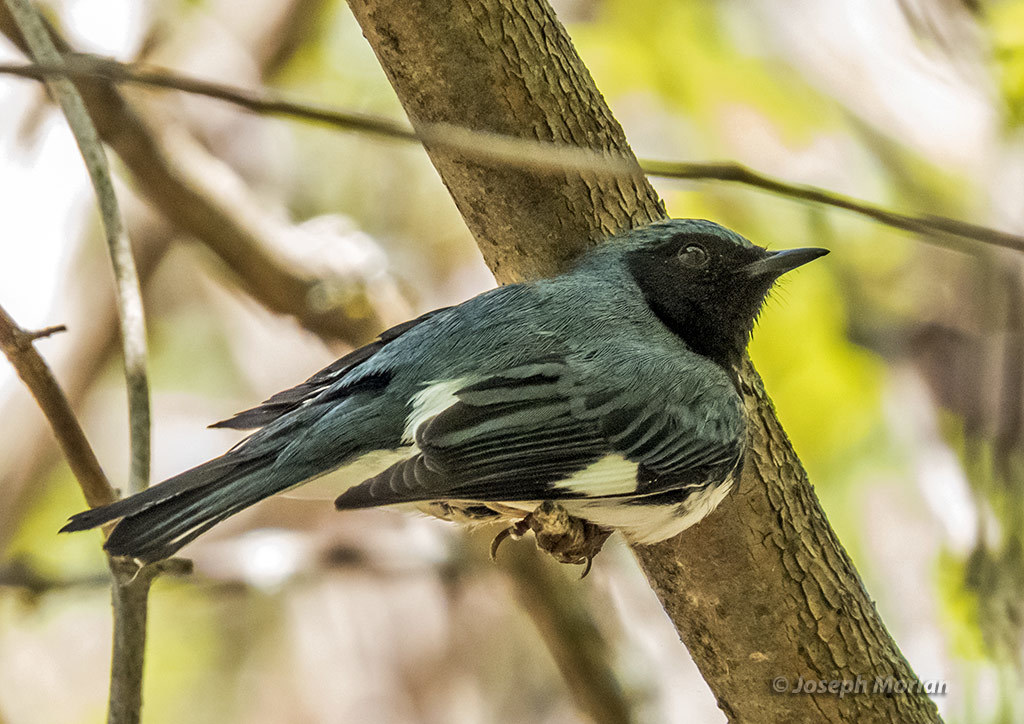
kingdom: Animalia
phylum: Chordata
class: Aves
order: Passeriformes
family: Parulidae
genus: Setophaga
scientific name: Setophaga caerulescens
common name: Black-throated blue warbler
